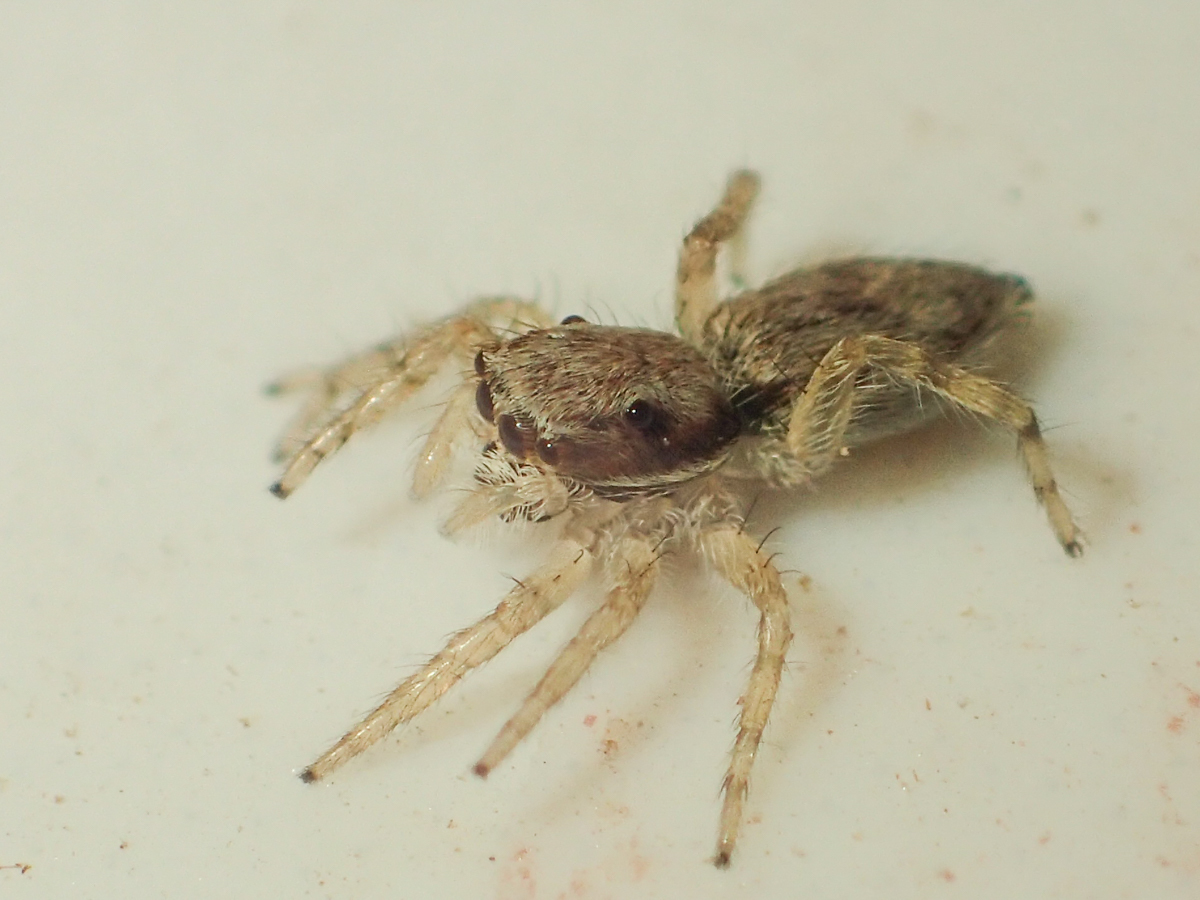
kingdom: Animalia
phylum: Arthropoda
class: Arachnida
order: Araneae
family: Salticidae
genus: Menemerus
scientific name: Menemerus bivittatus
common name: Gray wall jumper
